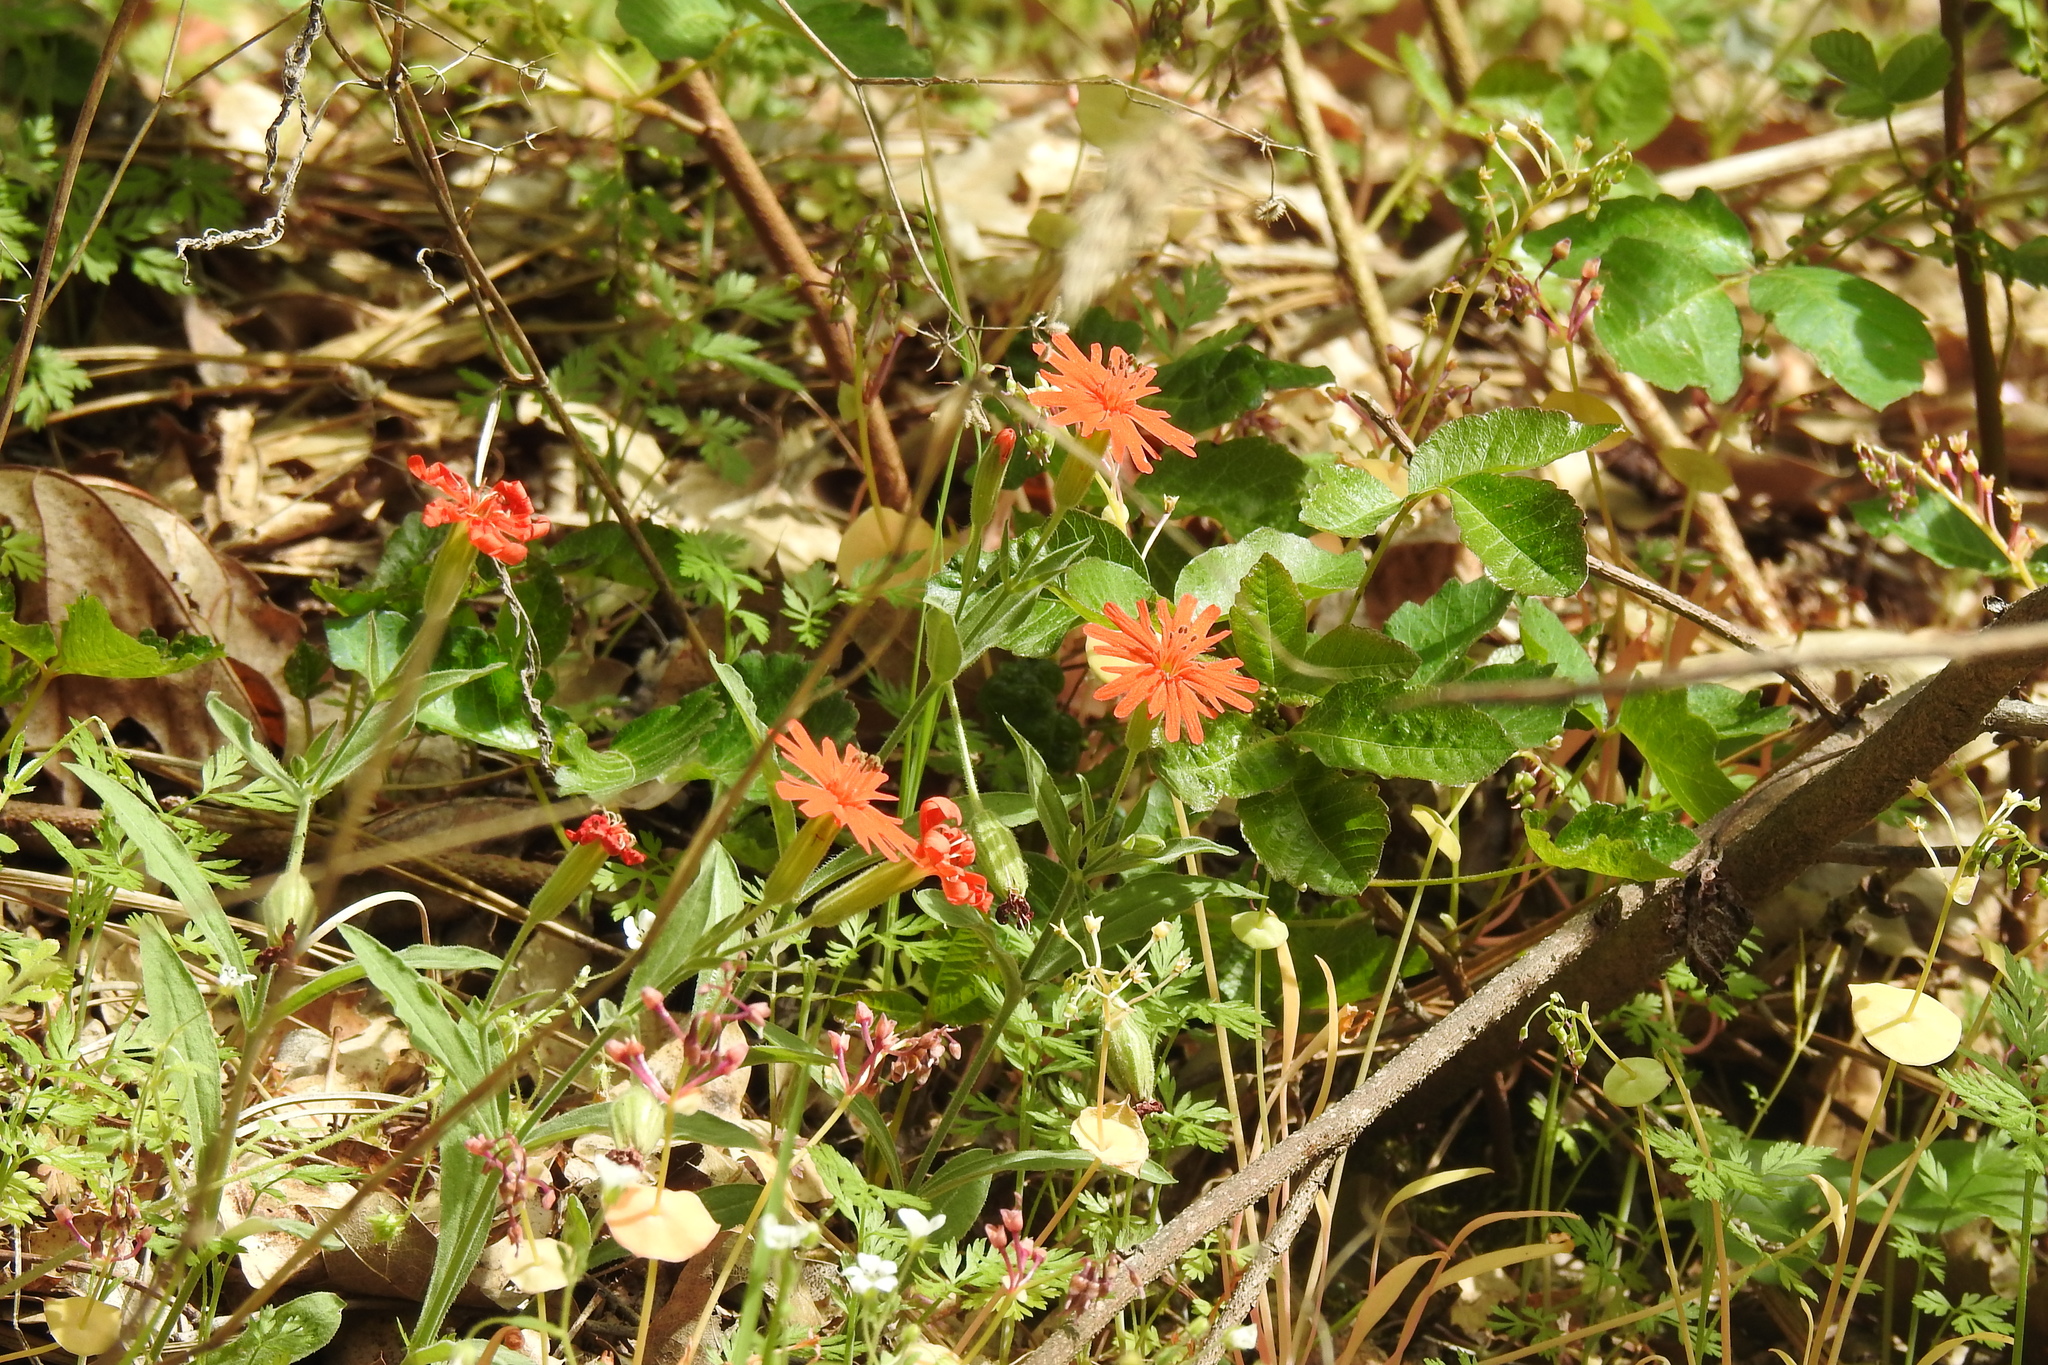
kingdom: Plantae
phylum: Tracheophyta
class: Magnoliopsida
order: Caryophyllales
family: Caryophyllaceae
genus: Silene
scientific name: Silene laciniata
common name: Indian-pink
